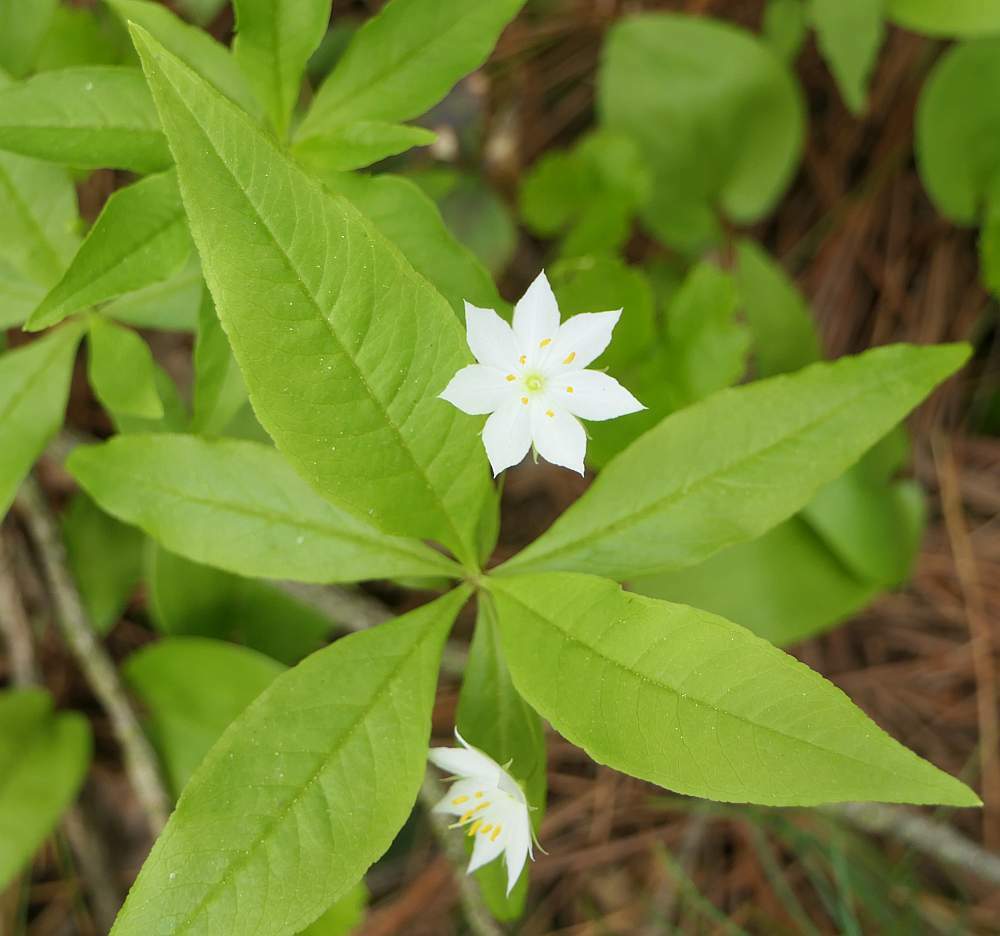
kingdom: Plantae
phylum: Tracheophyta
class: Magnoliopsida
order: Ericales
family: Primulaceae
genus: Lysimachia
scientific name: Lysimachia borealis
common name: American starflower
